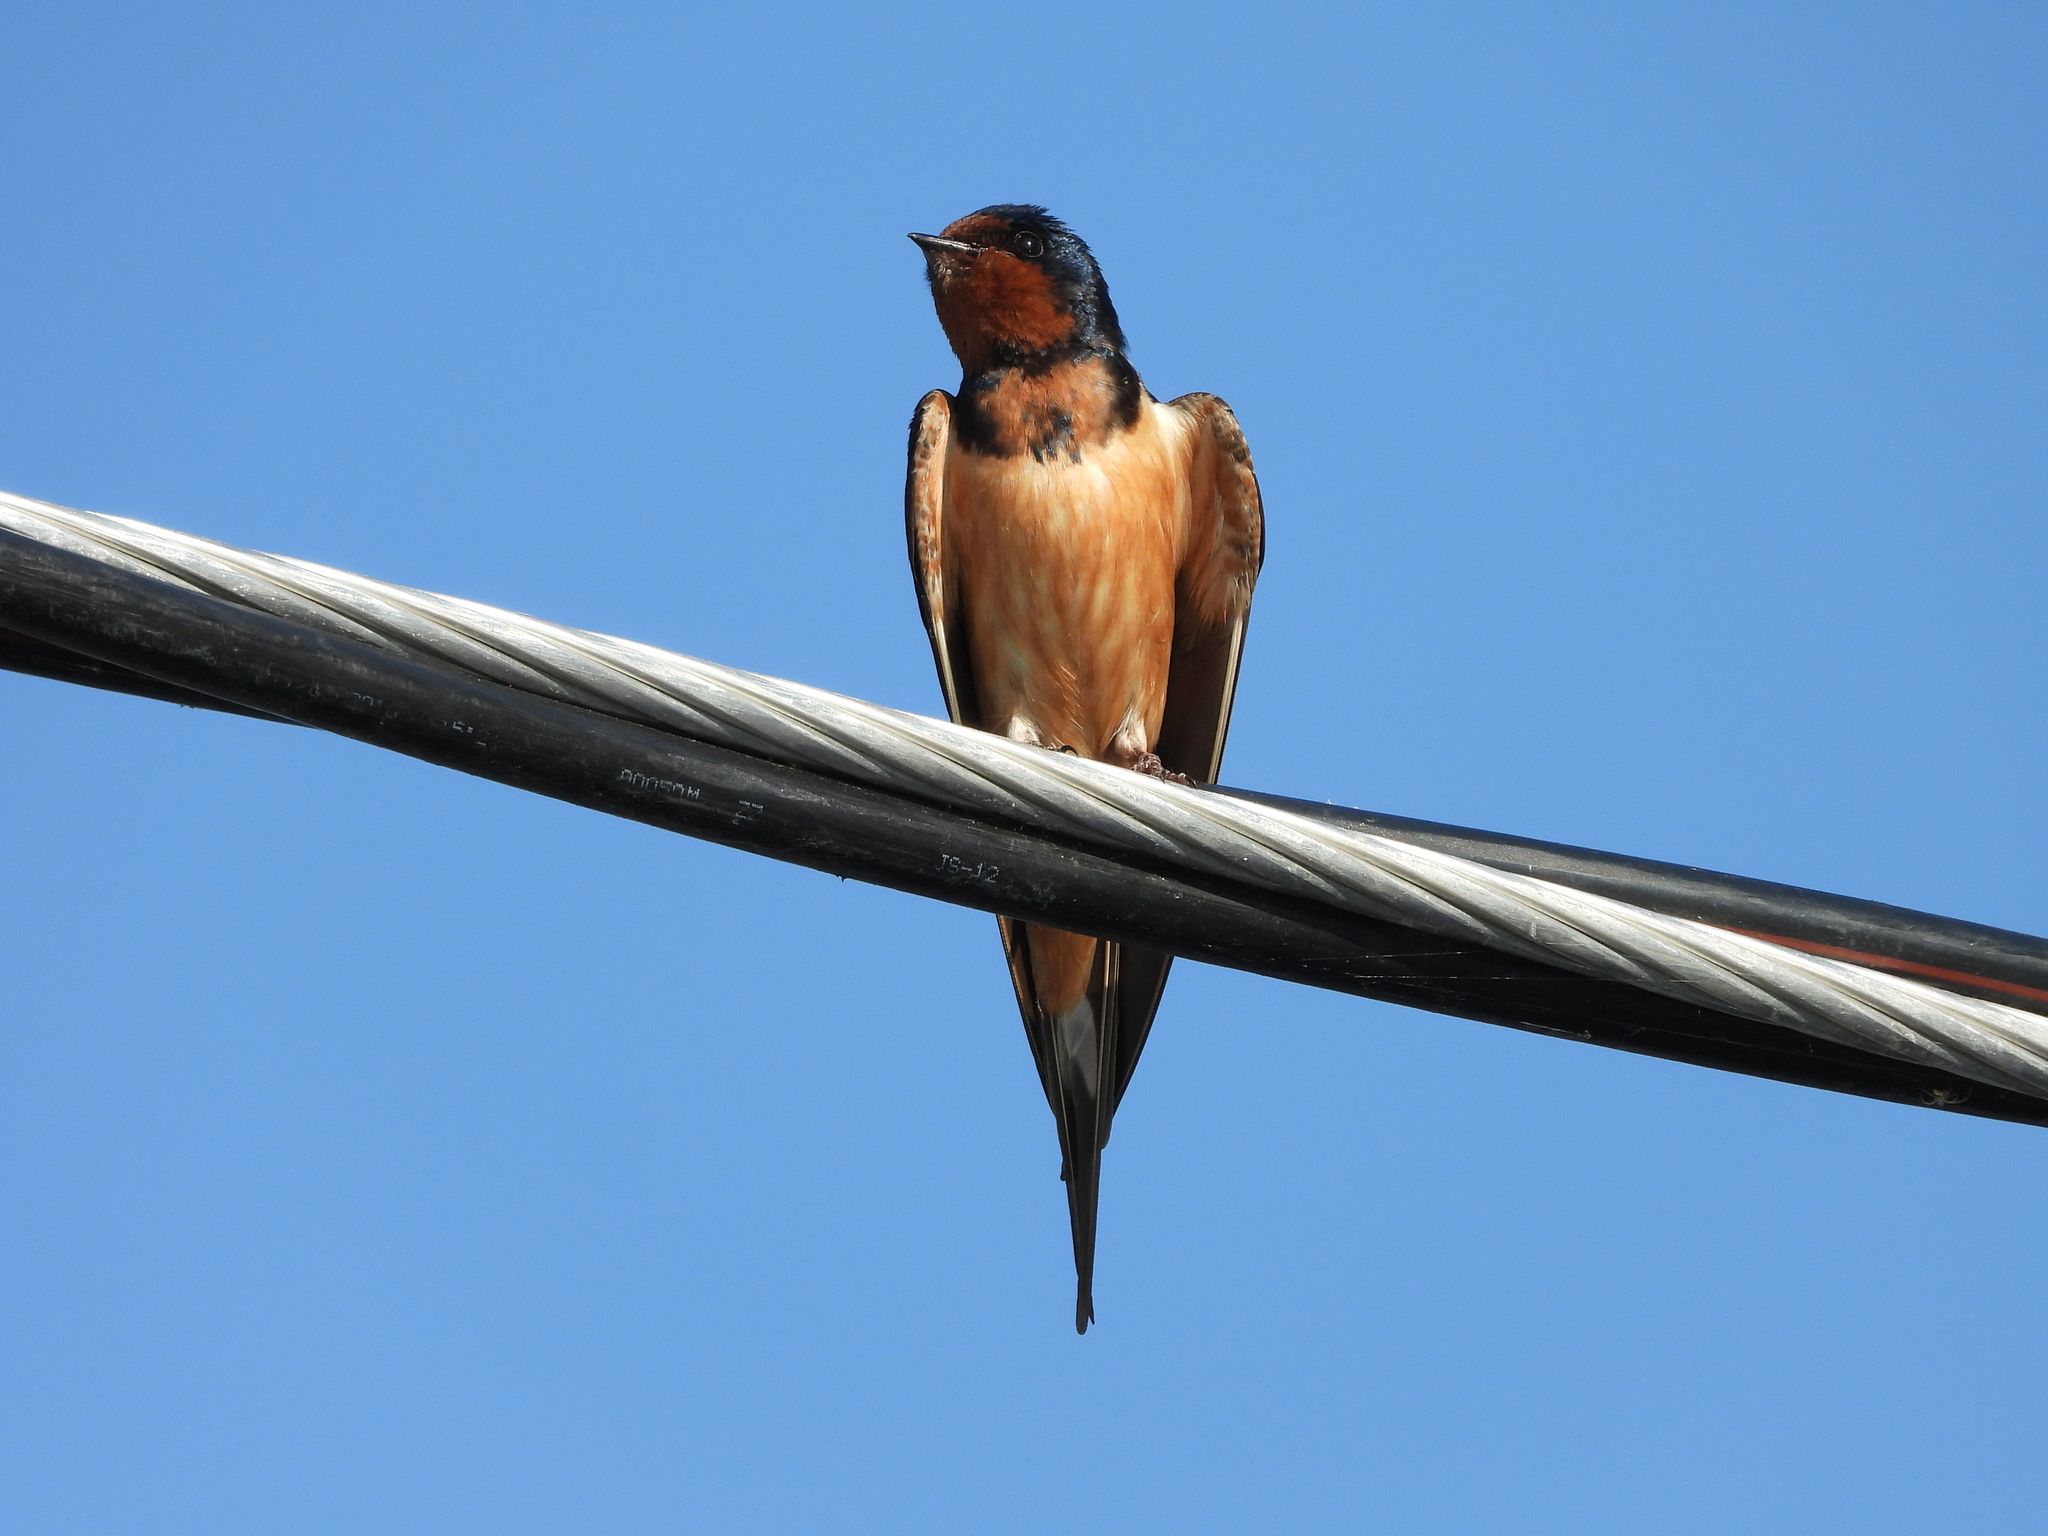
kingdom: Animalia
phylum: Chordata
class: Aves
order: Passeriformes
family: Hirundinidae
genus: Hirundo
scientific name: Hirundo rustica
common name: Barn swallow
